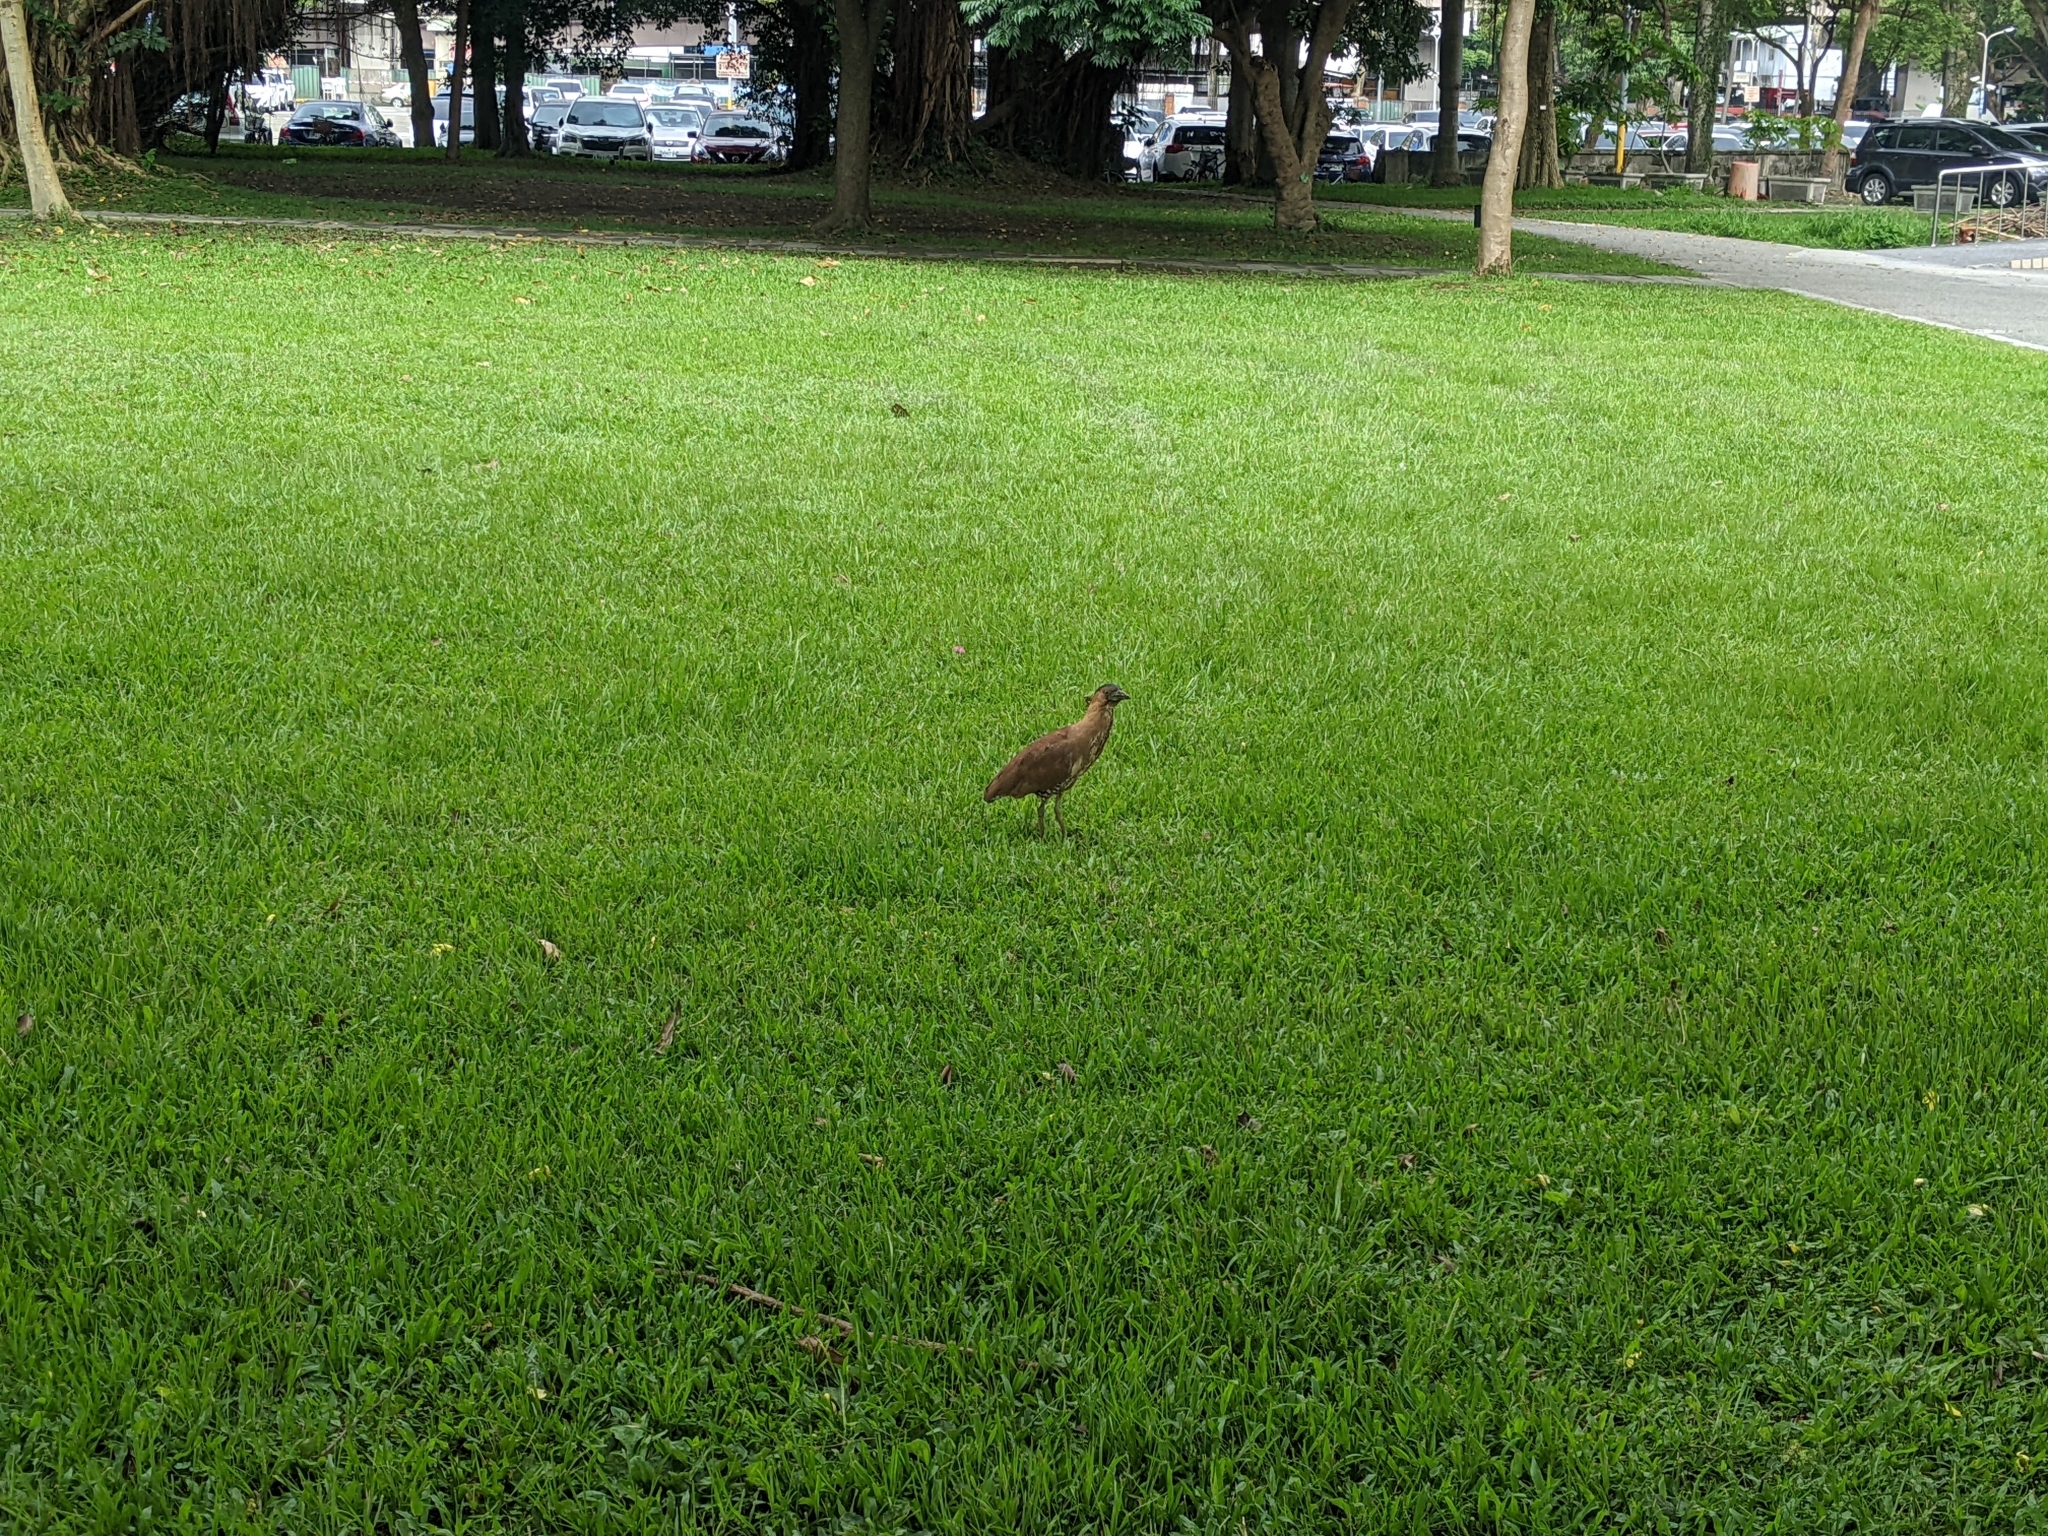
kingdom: Animalia
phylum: Chordata
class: Aves
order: Pelecaniformes
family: Ardeidae
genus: Gorsachius
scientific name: Gorsachius melanolophus
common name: Malayan night heron
